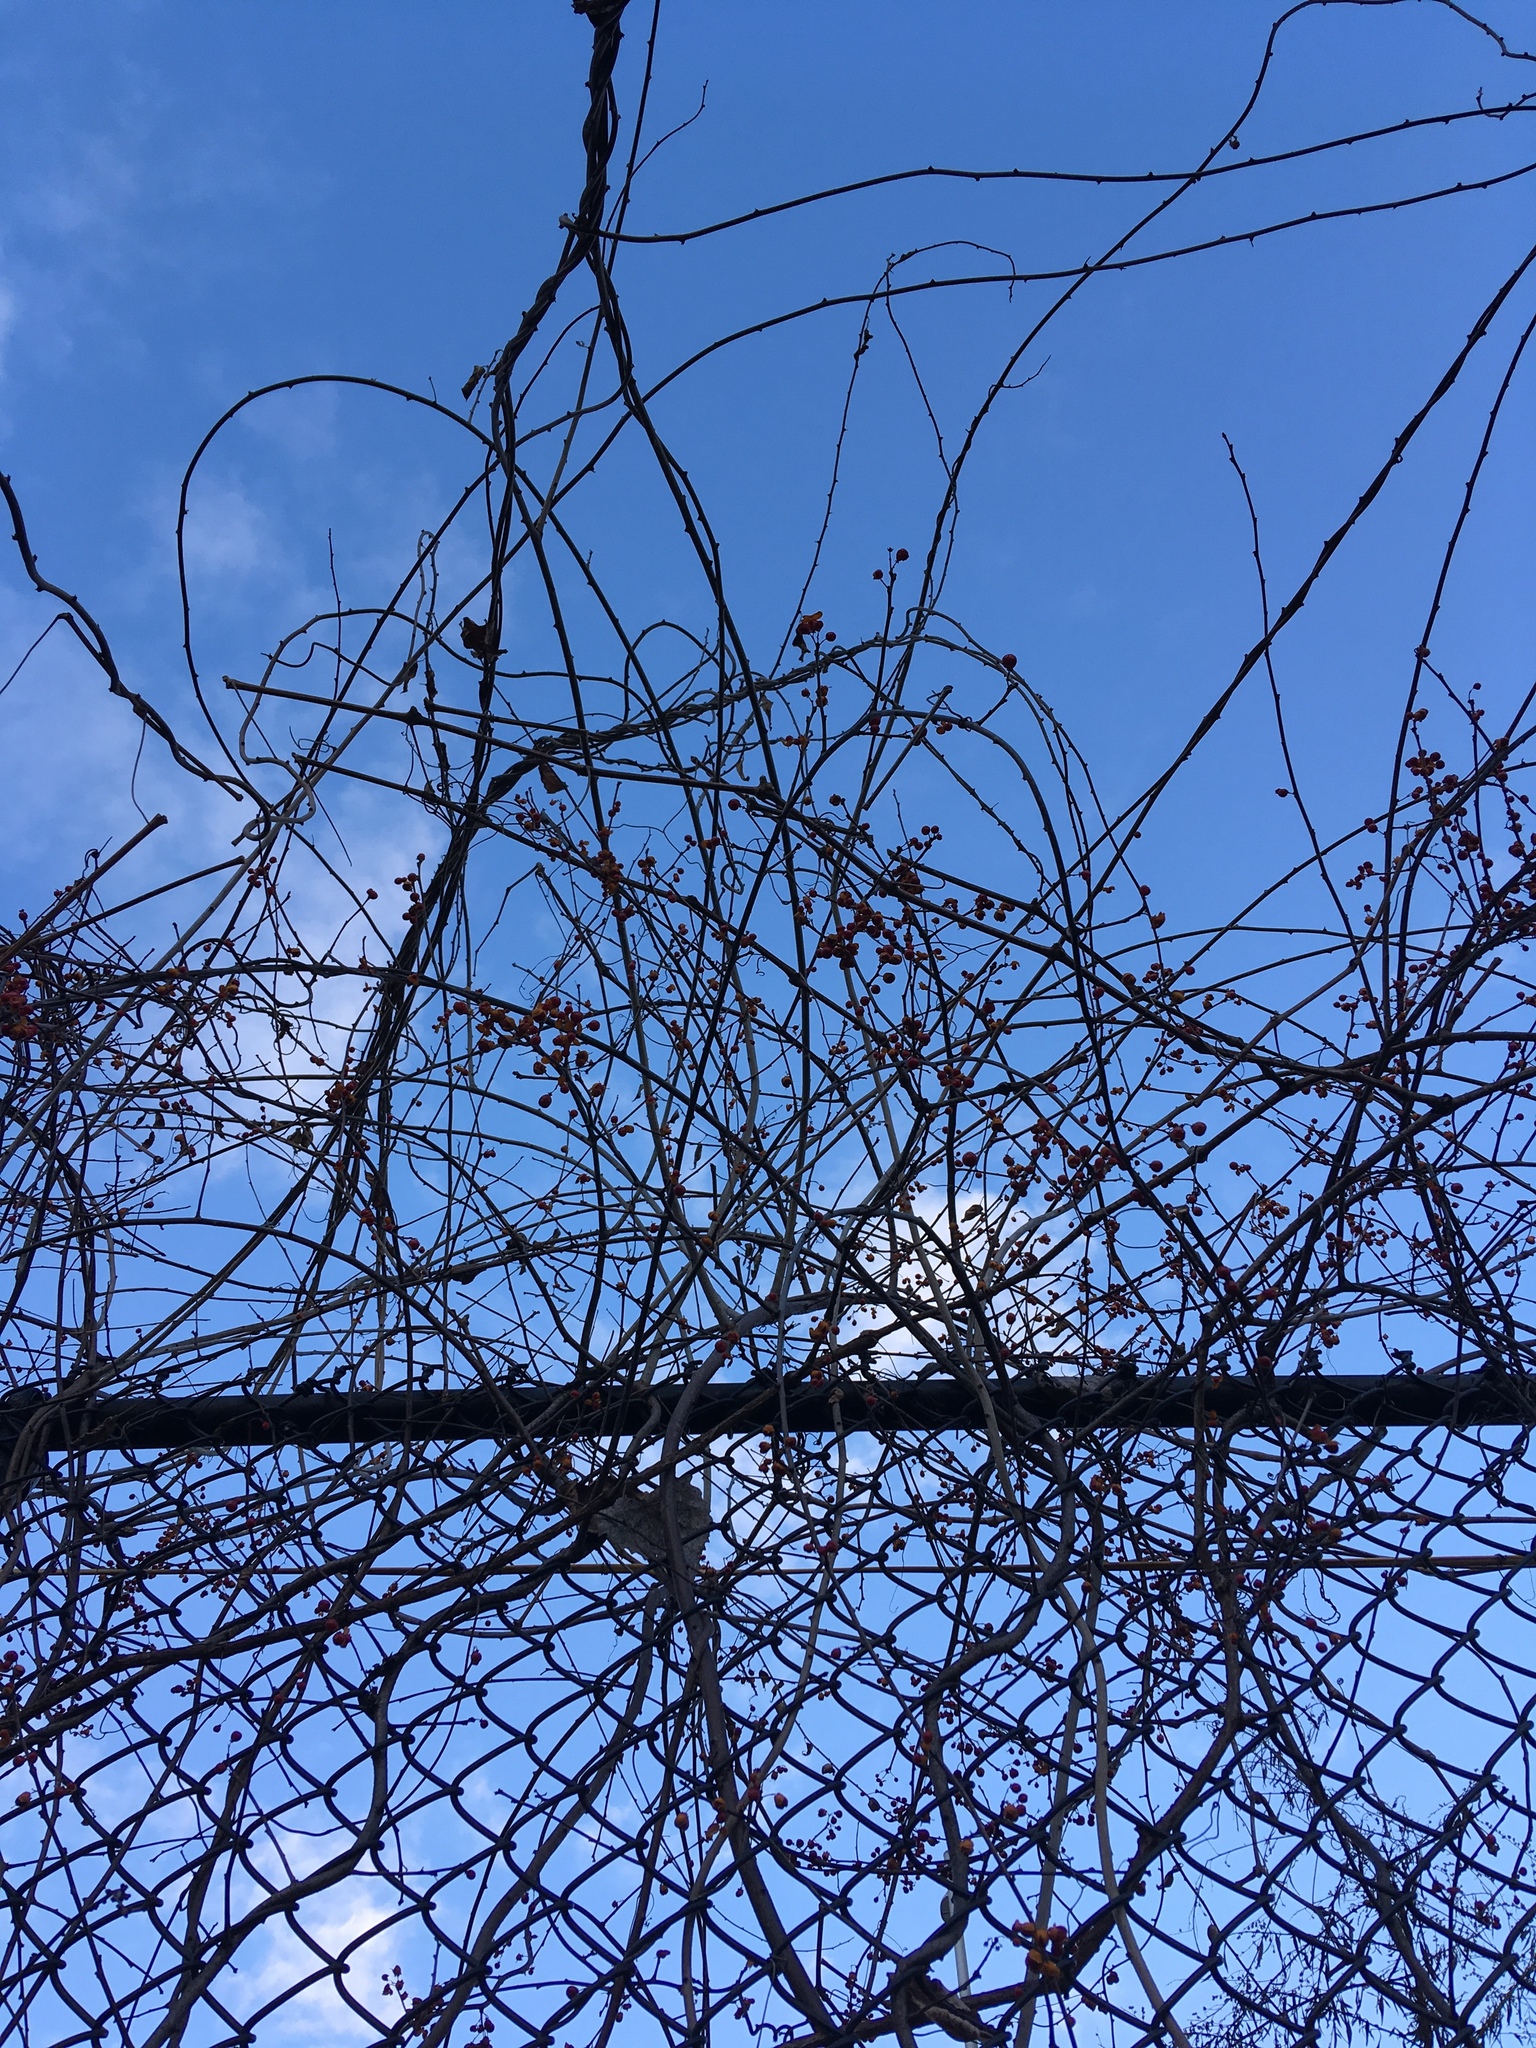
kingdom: Plantae
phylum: Tracheophyta
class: Magnoliopsida
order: Celastrales
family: Celastraceae
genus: Celastrus
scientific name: Celastrus orbiculatus
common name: Oriental bittersweet
